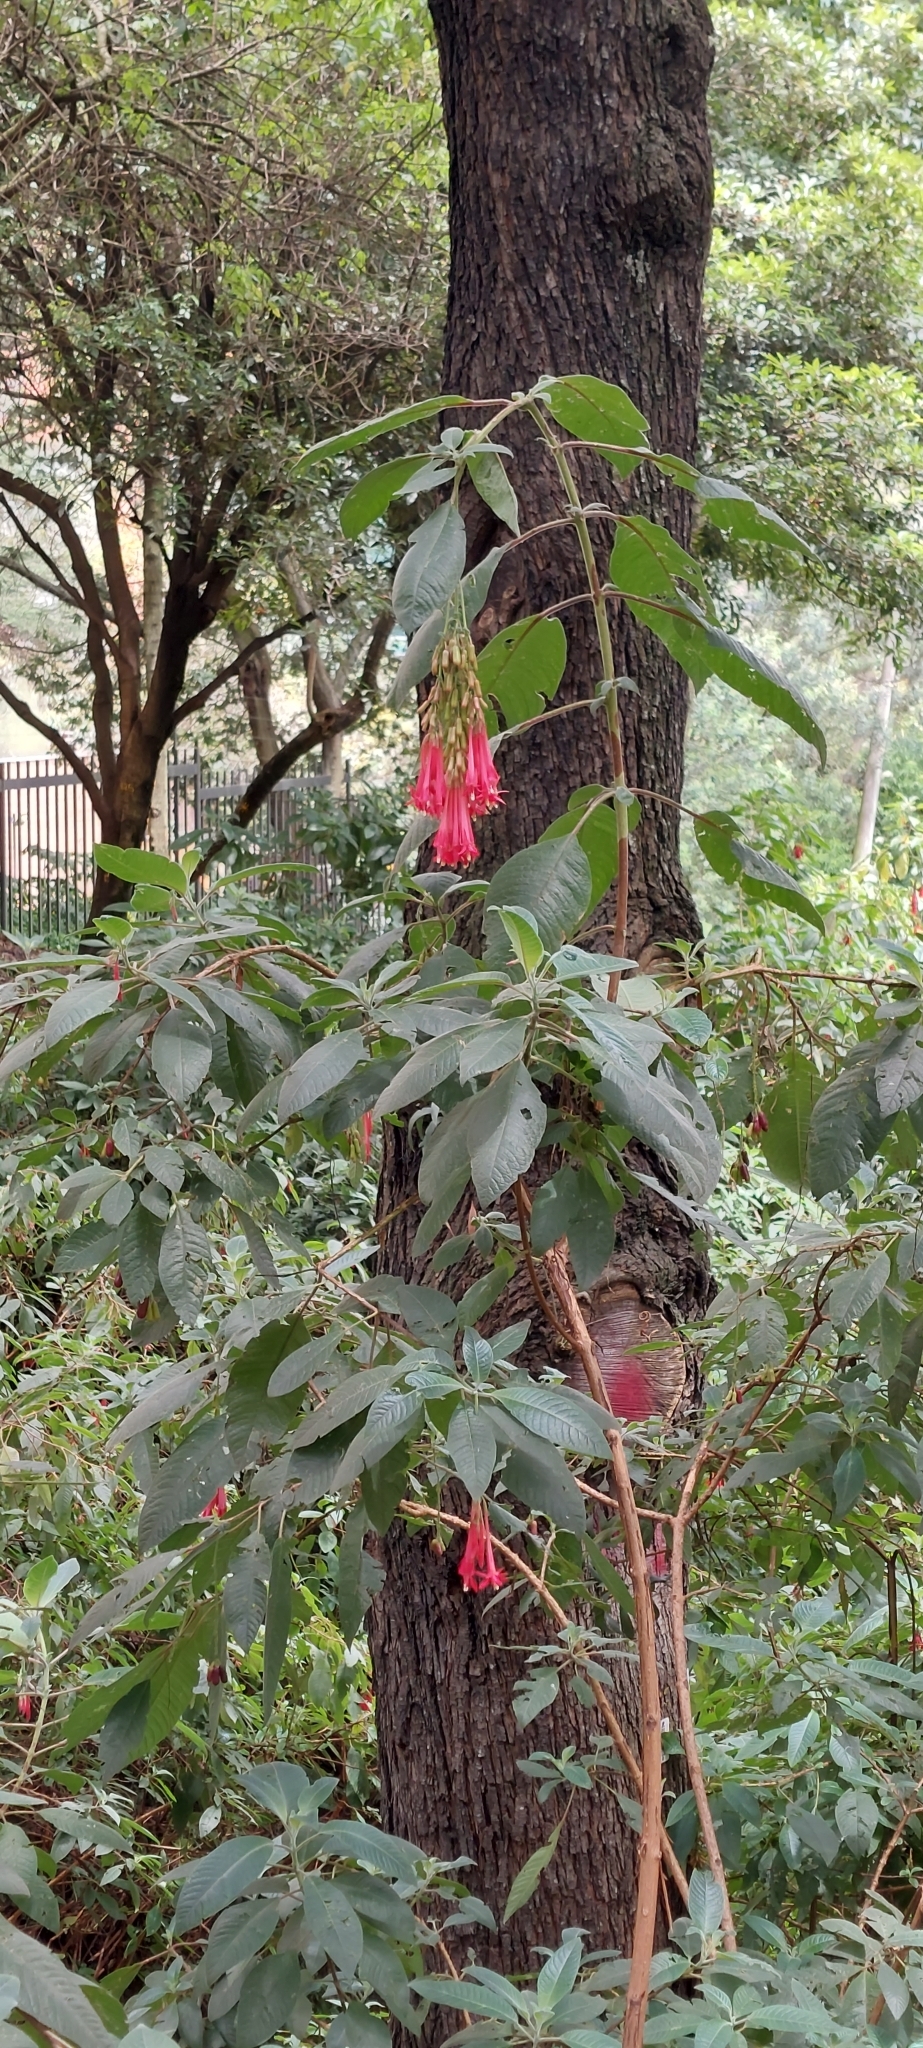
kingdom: Plantae
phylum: Tracheophyta
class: Magnoliopsida
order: Myrtales
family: Onagraceae
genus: Fuchsia
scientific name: Fuchsia boliviana
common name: Bolivian fuchsia
